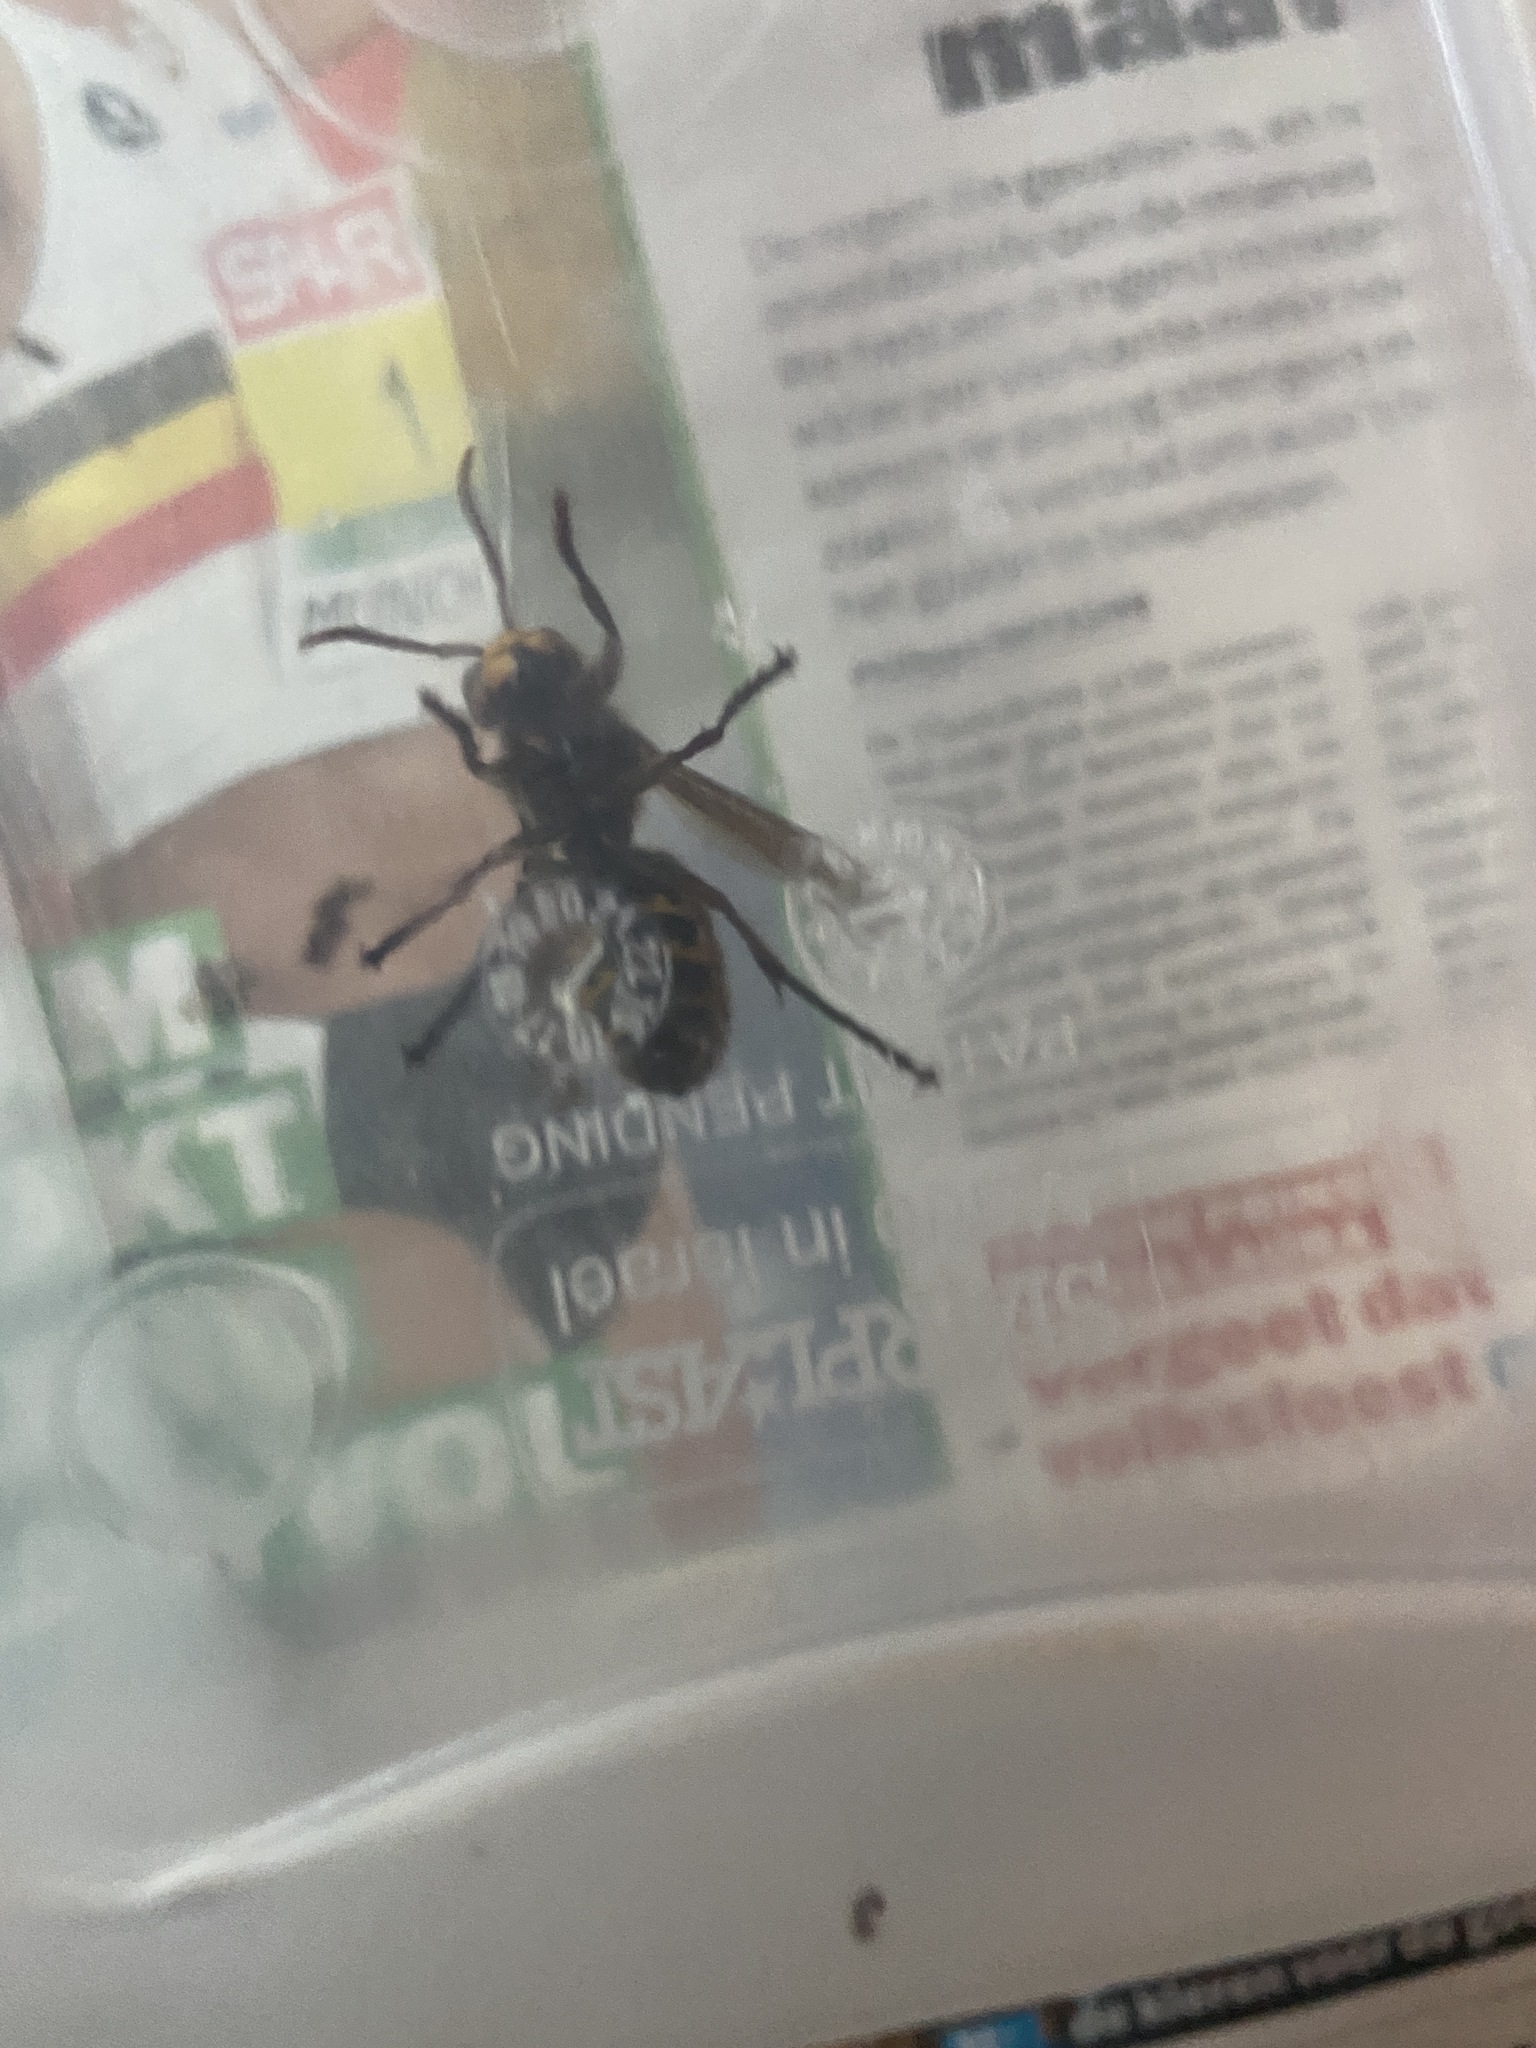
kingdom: Animalia
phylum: Arthropoda
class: Insecta
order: Hymenoptera
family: Vespidae
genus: Vespa
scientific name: Vespa crabro
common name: Hornet
